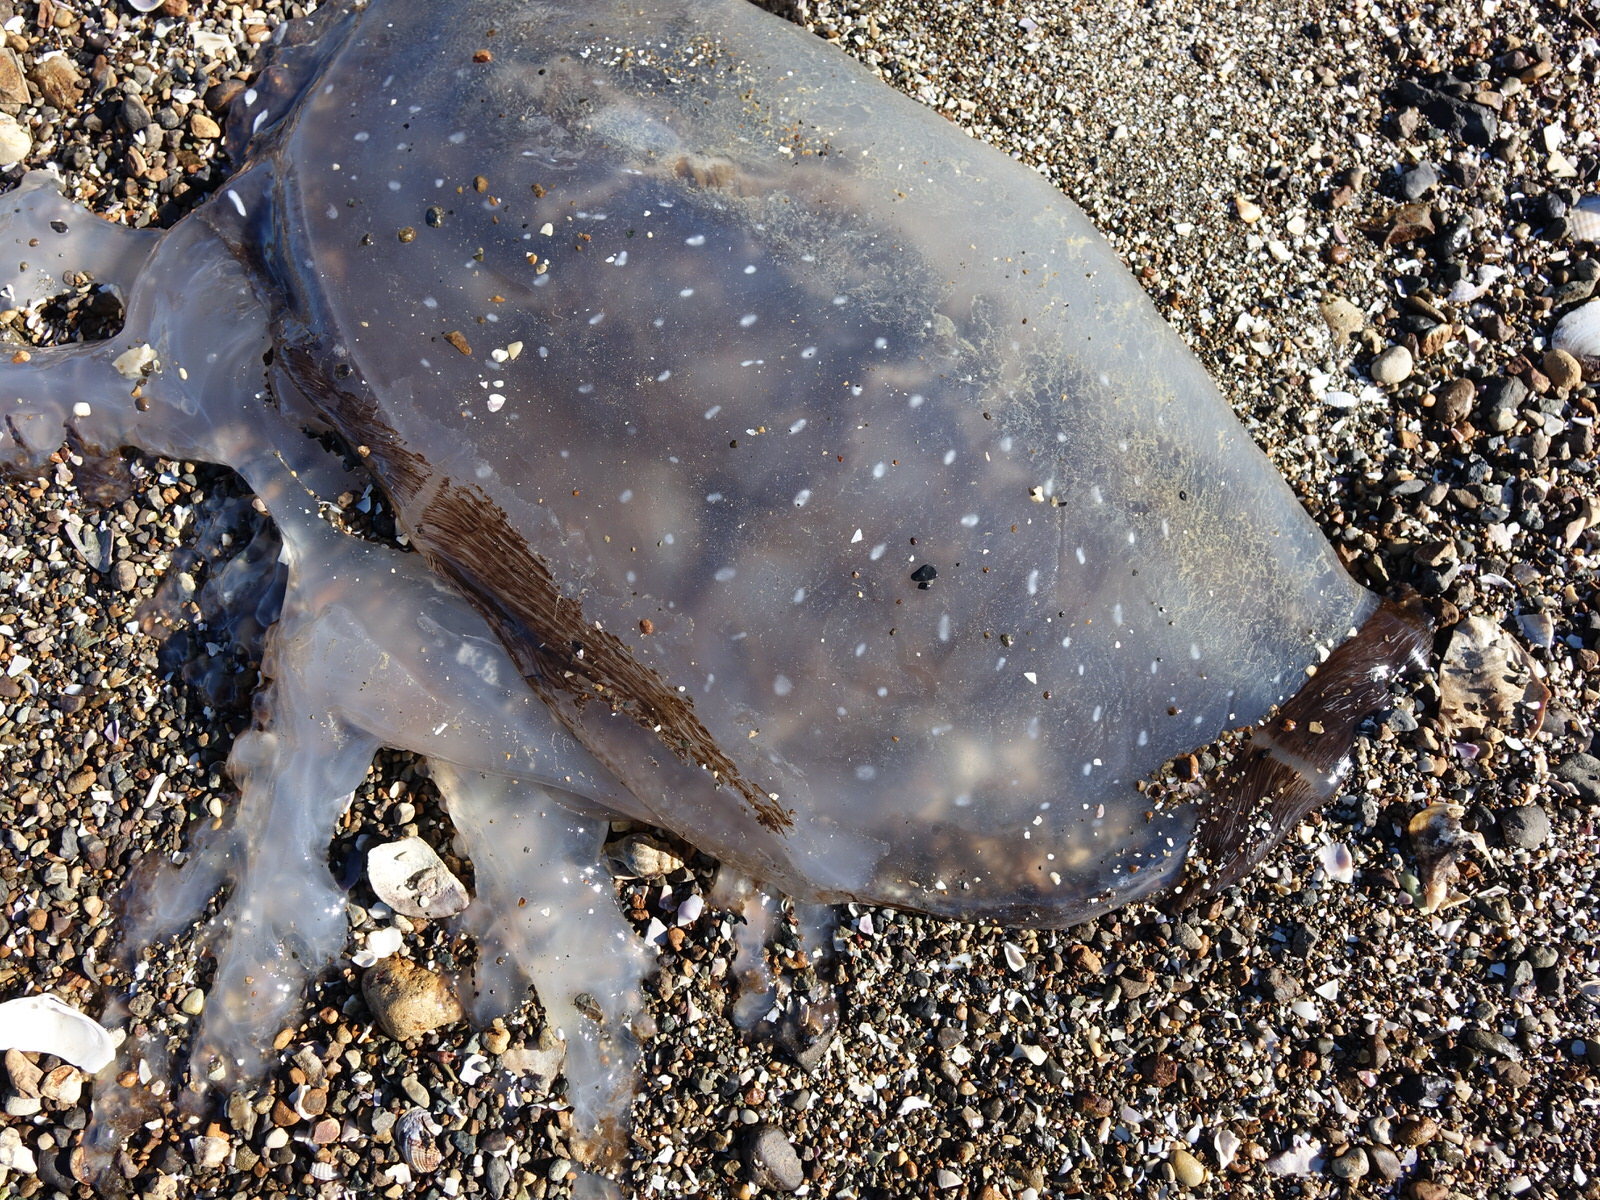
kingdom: Animalia
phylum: Cnidaria
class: Scyphozoa
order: Rhizostomeae
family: Mastigiidae
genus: Phyllorhiza
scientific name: Phyllorhiza punctata
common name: Australian spotted jellyfish
